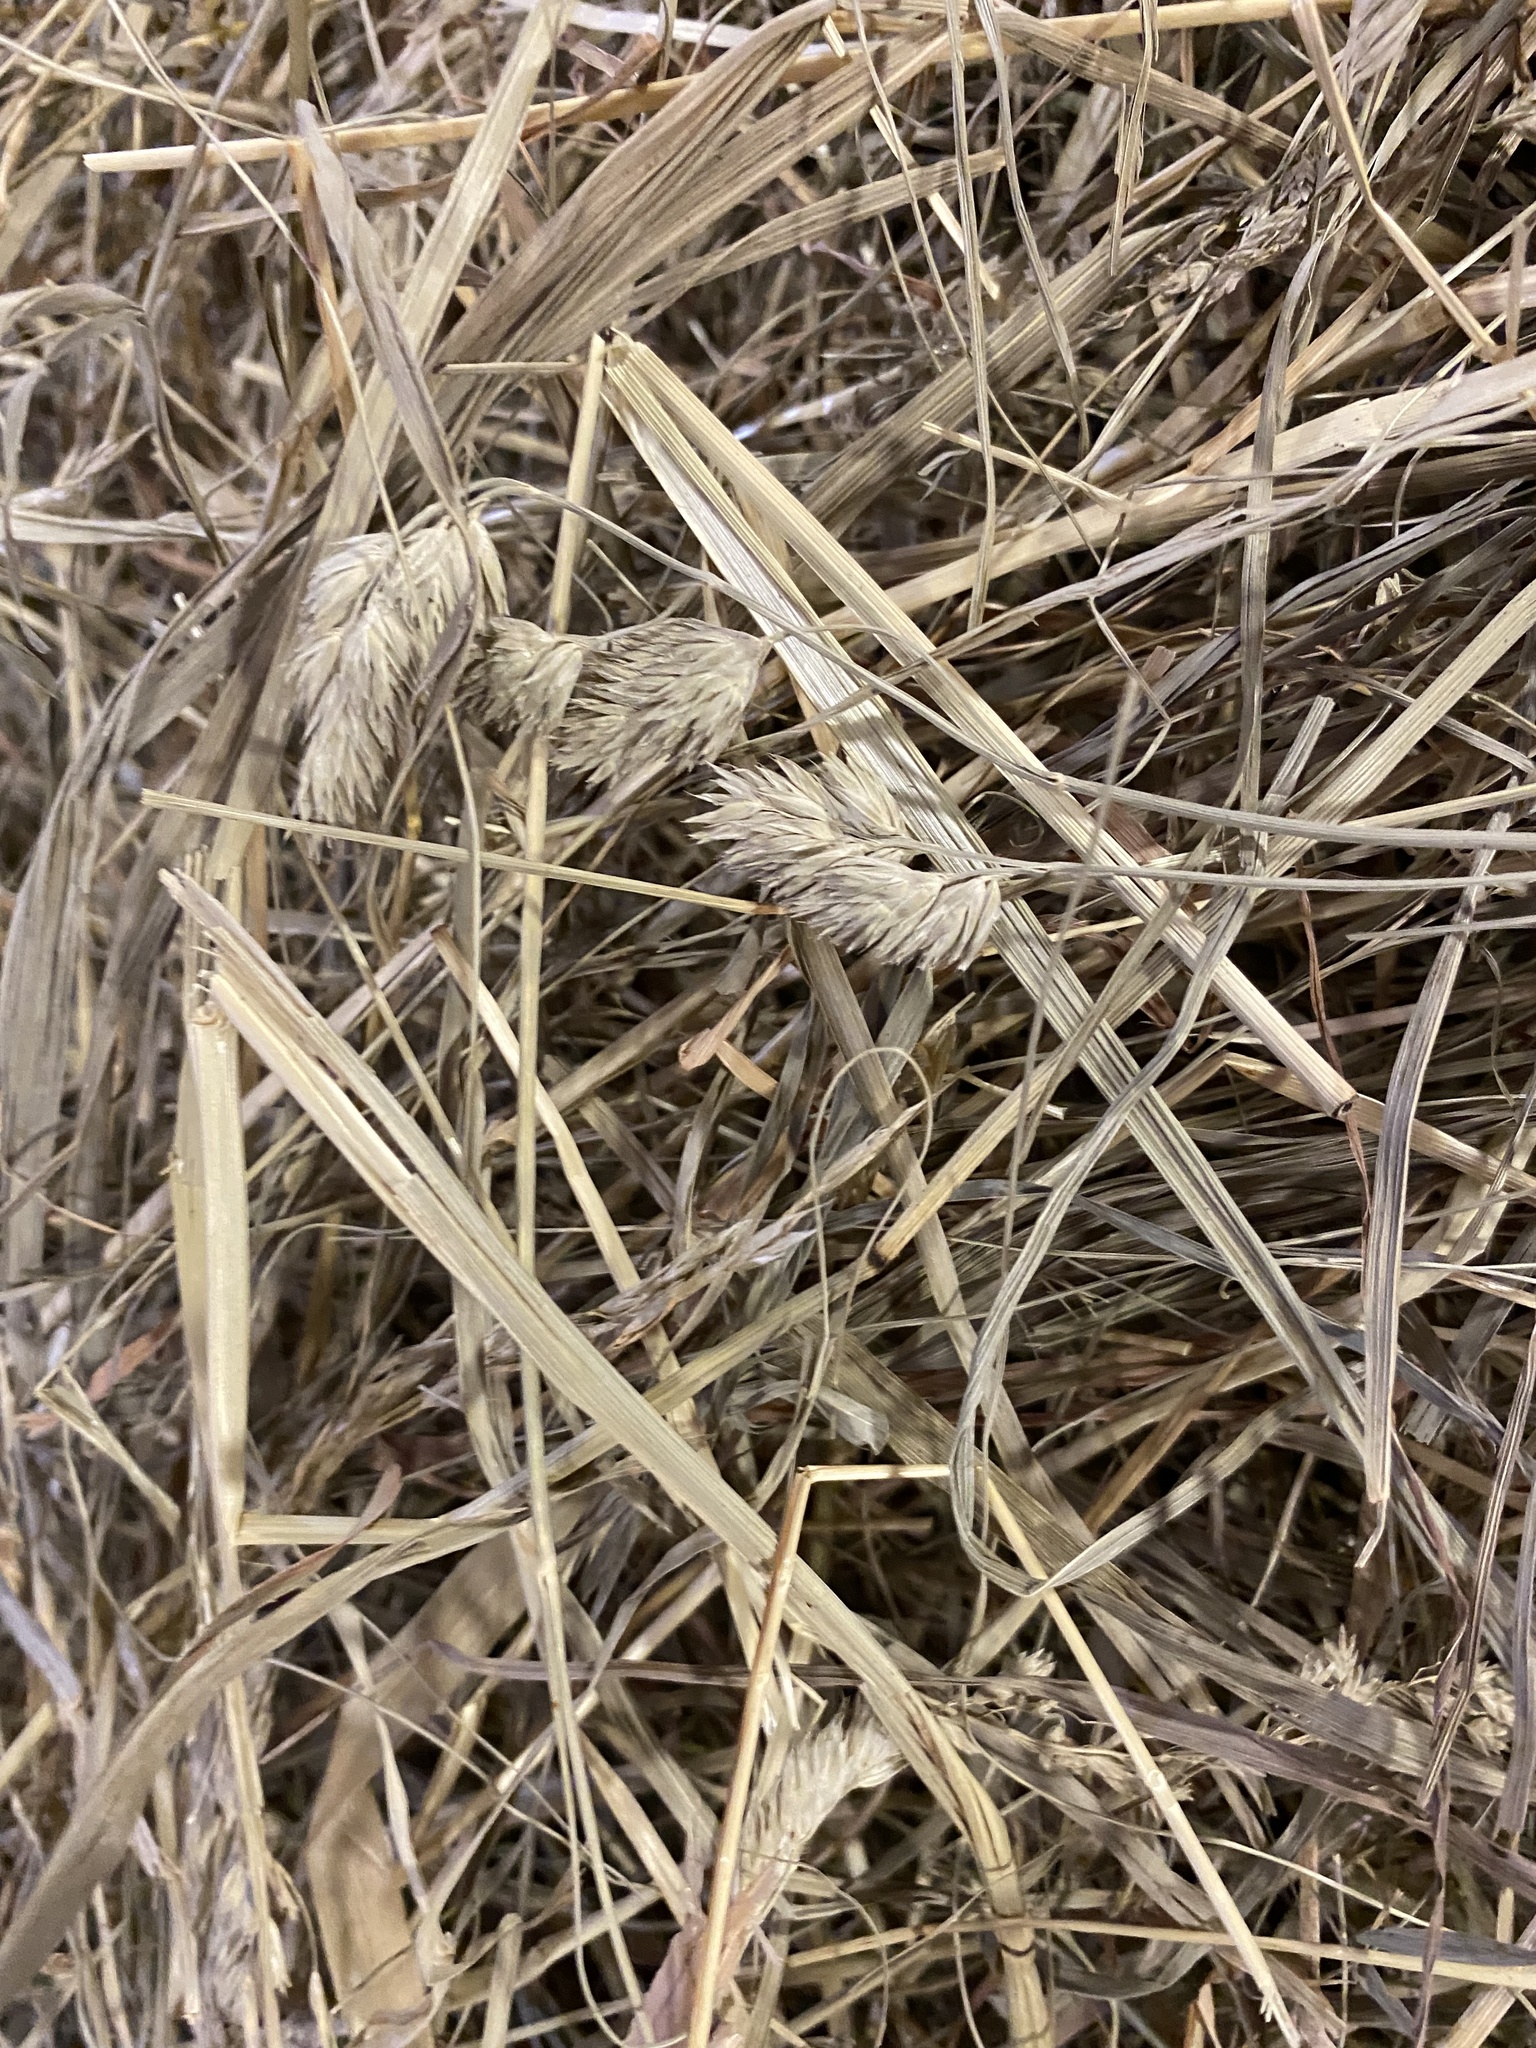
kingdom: Plantae
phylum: Tracheophyta
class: Liliopsida
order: Poales
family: Poaceae
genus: Dactylis
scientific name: Dactylis glomerata
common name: Orchardgrass
